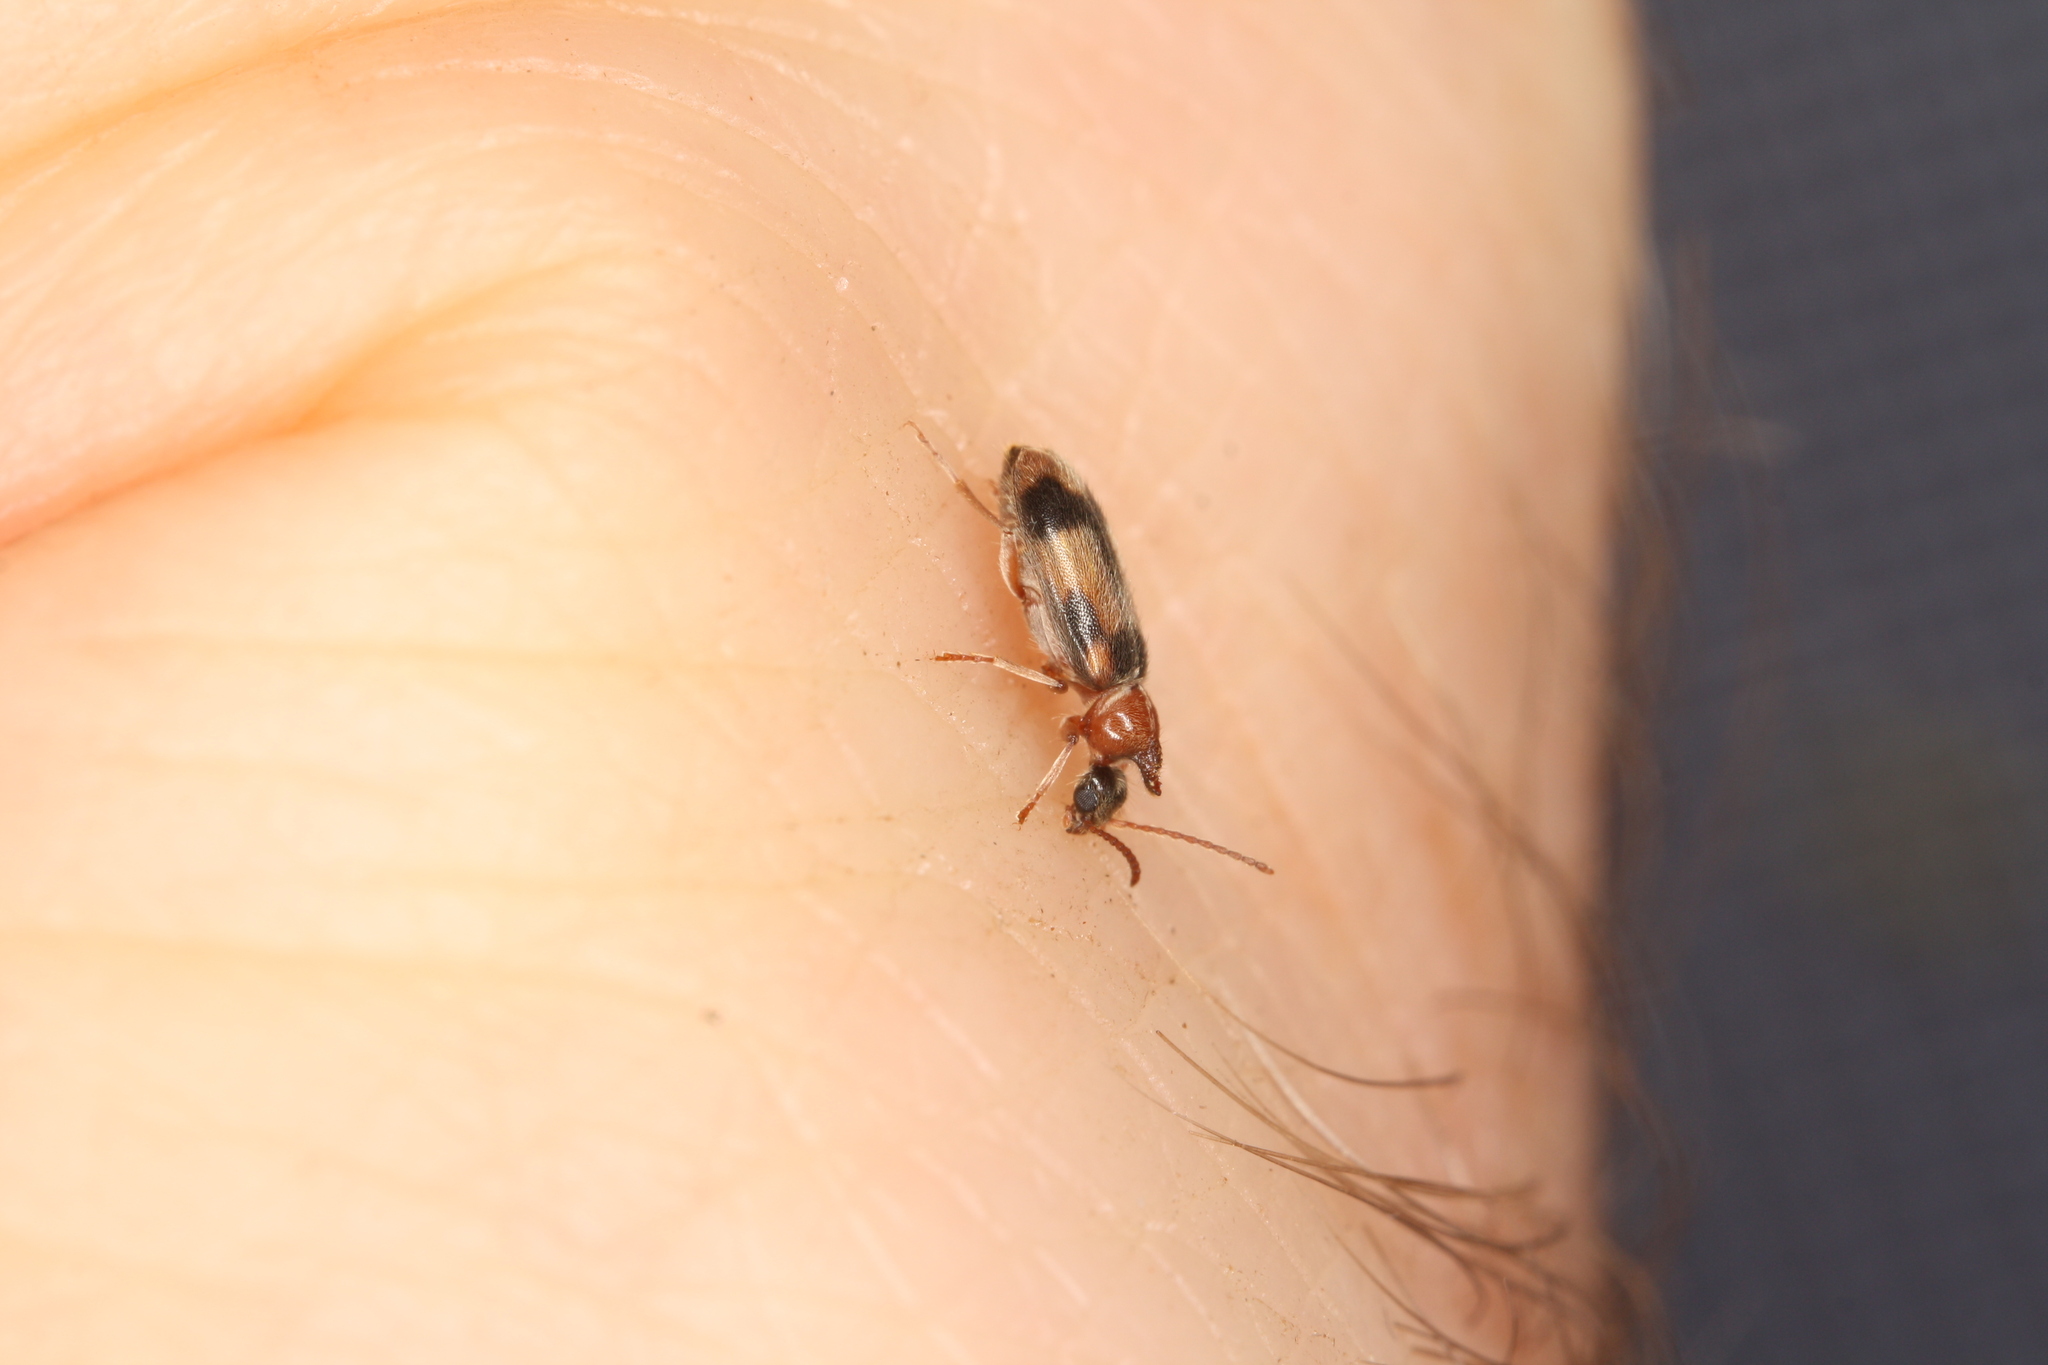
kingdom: Animalia
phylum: Arthropoda
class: Insecta
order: Coleoptera
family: Anthicidae
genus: Notoxus
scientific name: Notoxus monoceros
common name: Monoceros beetle
